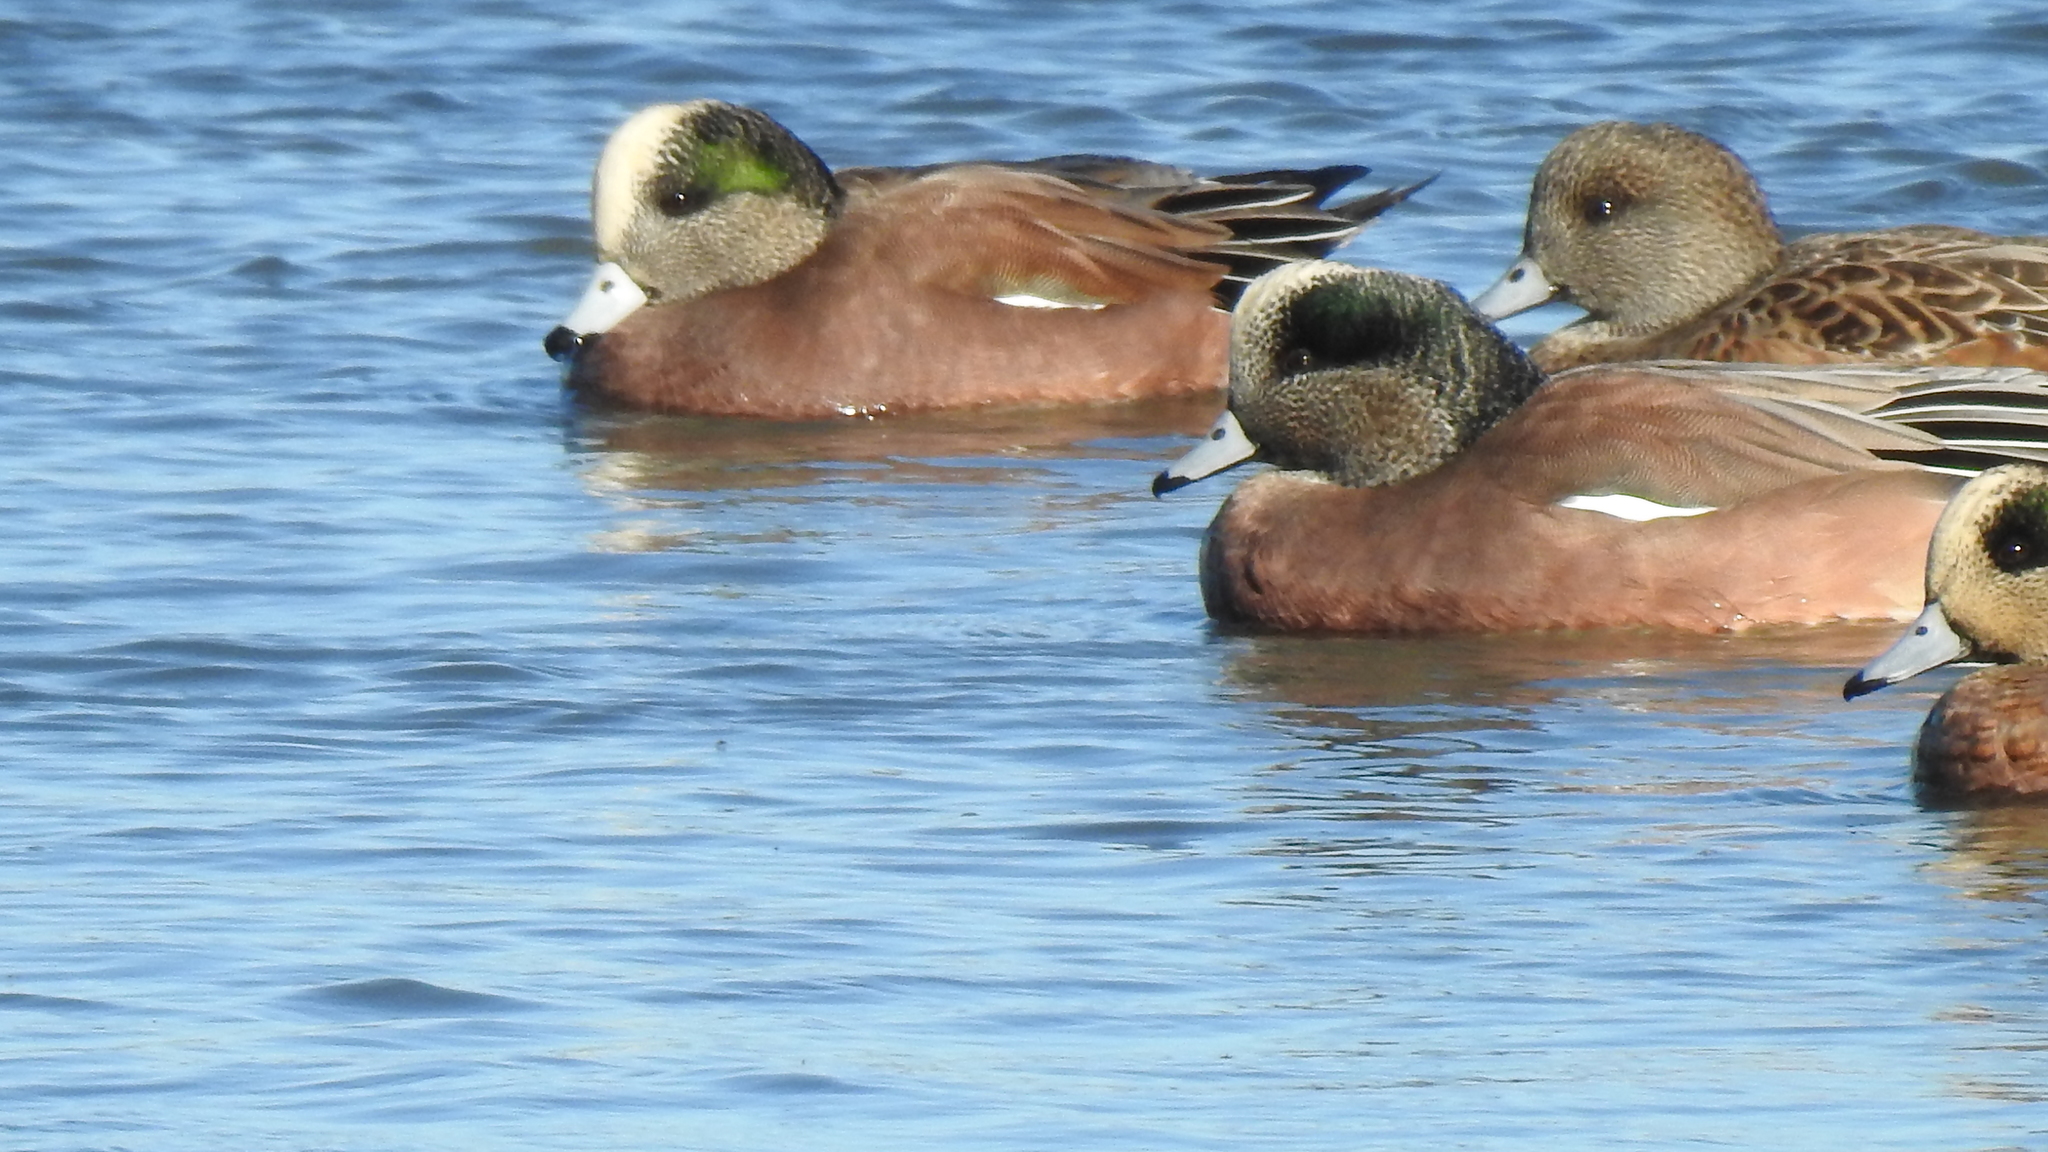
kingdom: Animalia
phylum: Chordata
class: Aves
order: Anseriformes
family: Anatidae
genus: Mareca
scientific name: Mareca americana
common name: American wigeon
